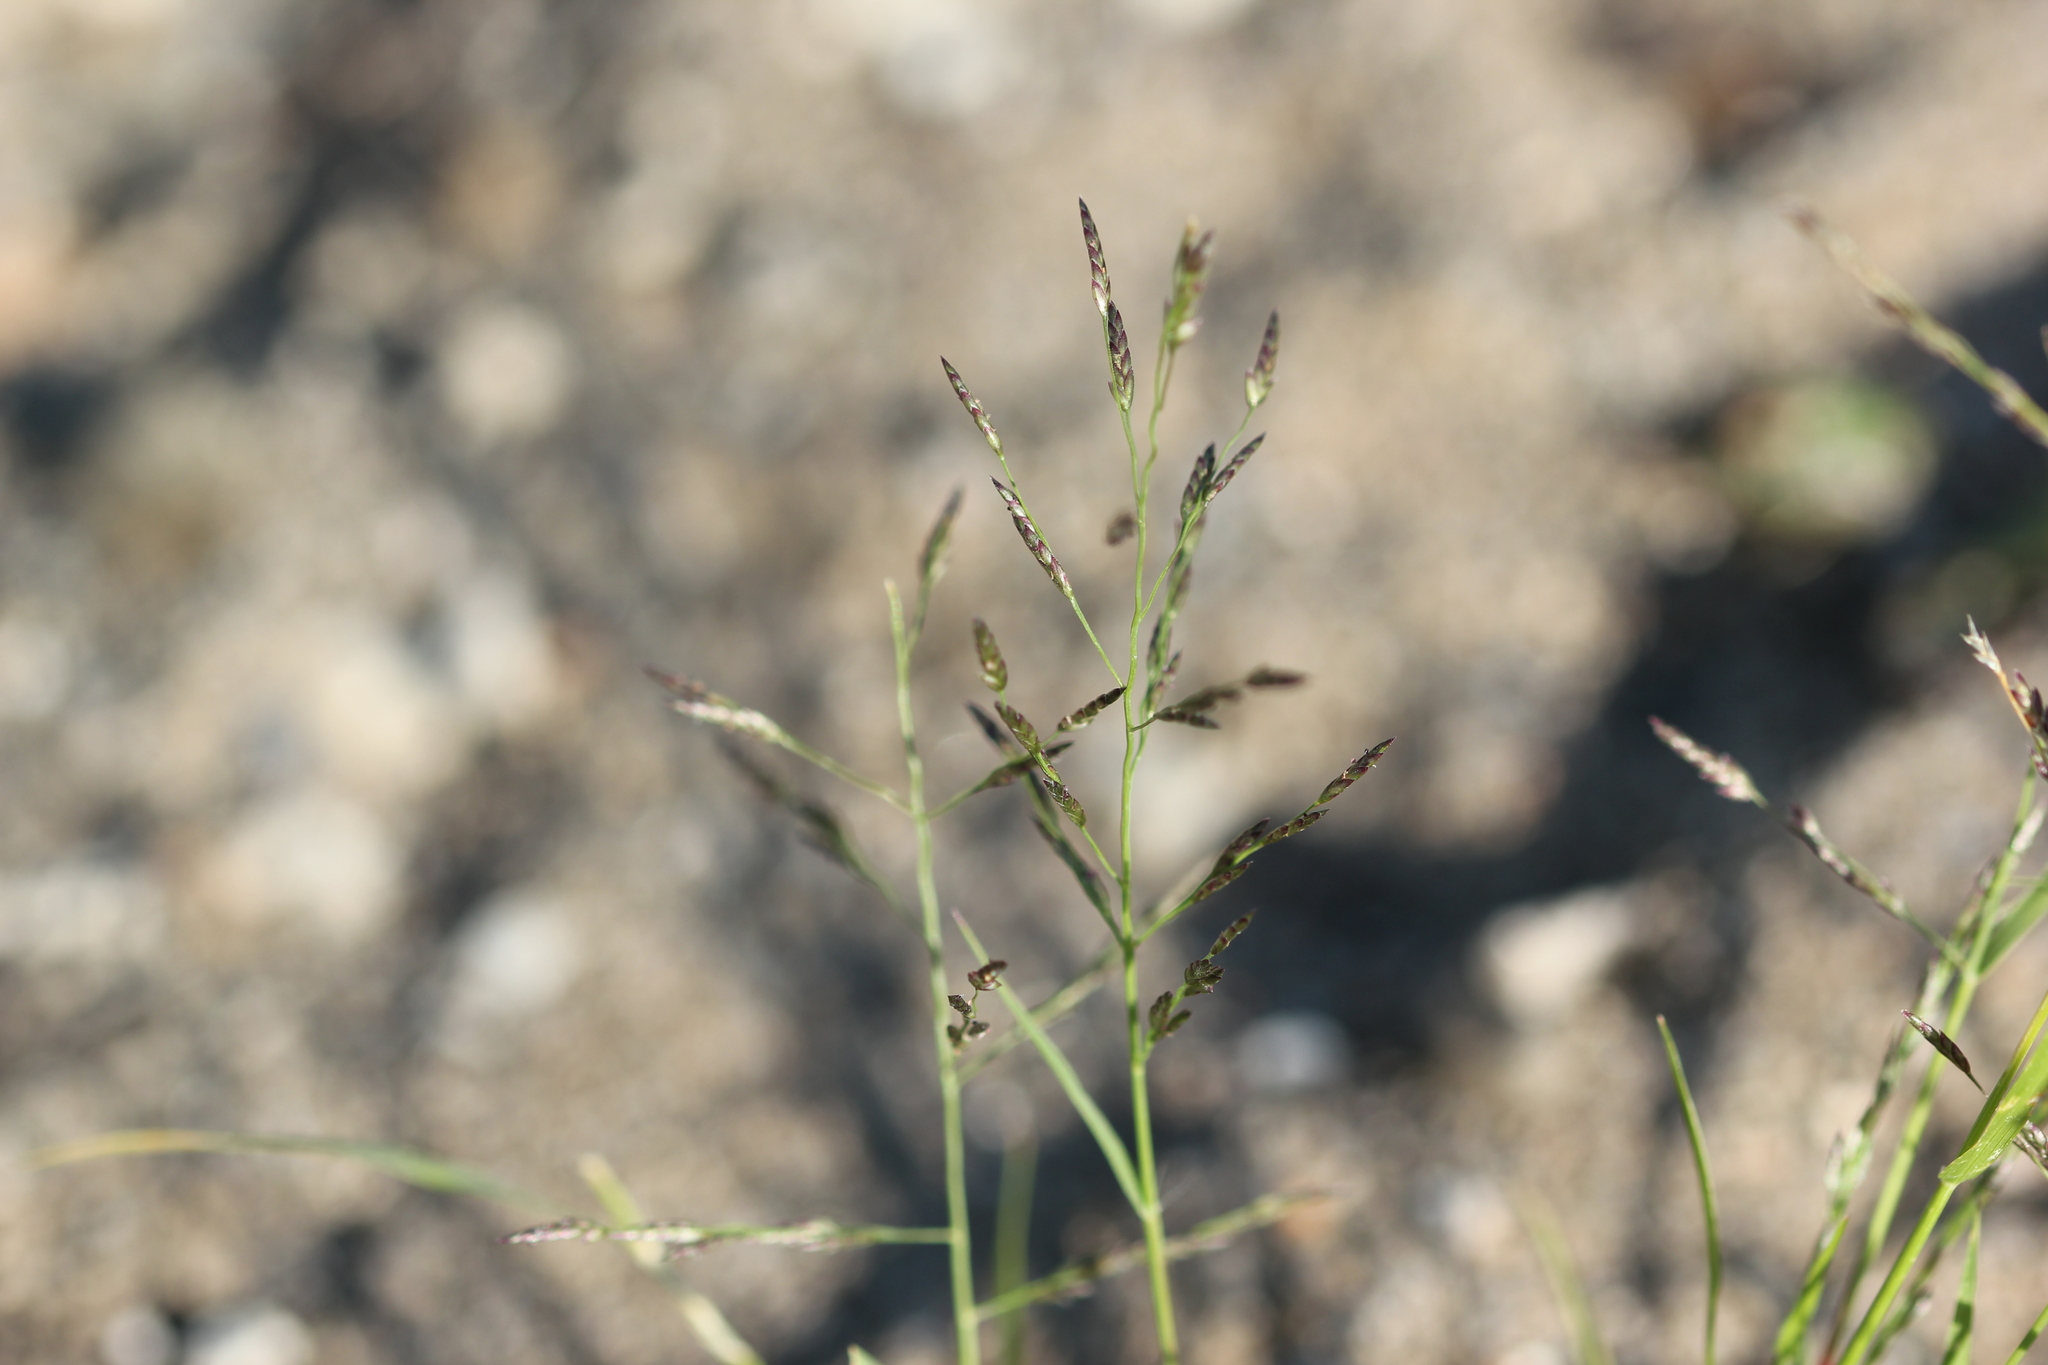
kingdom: Plantae
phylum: Tracheophyta
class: Liliopsida
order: Poales
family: Poaceae
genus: Eragrostis
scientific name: Eragrostis pectinacea
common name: Tufted lovegrass
